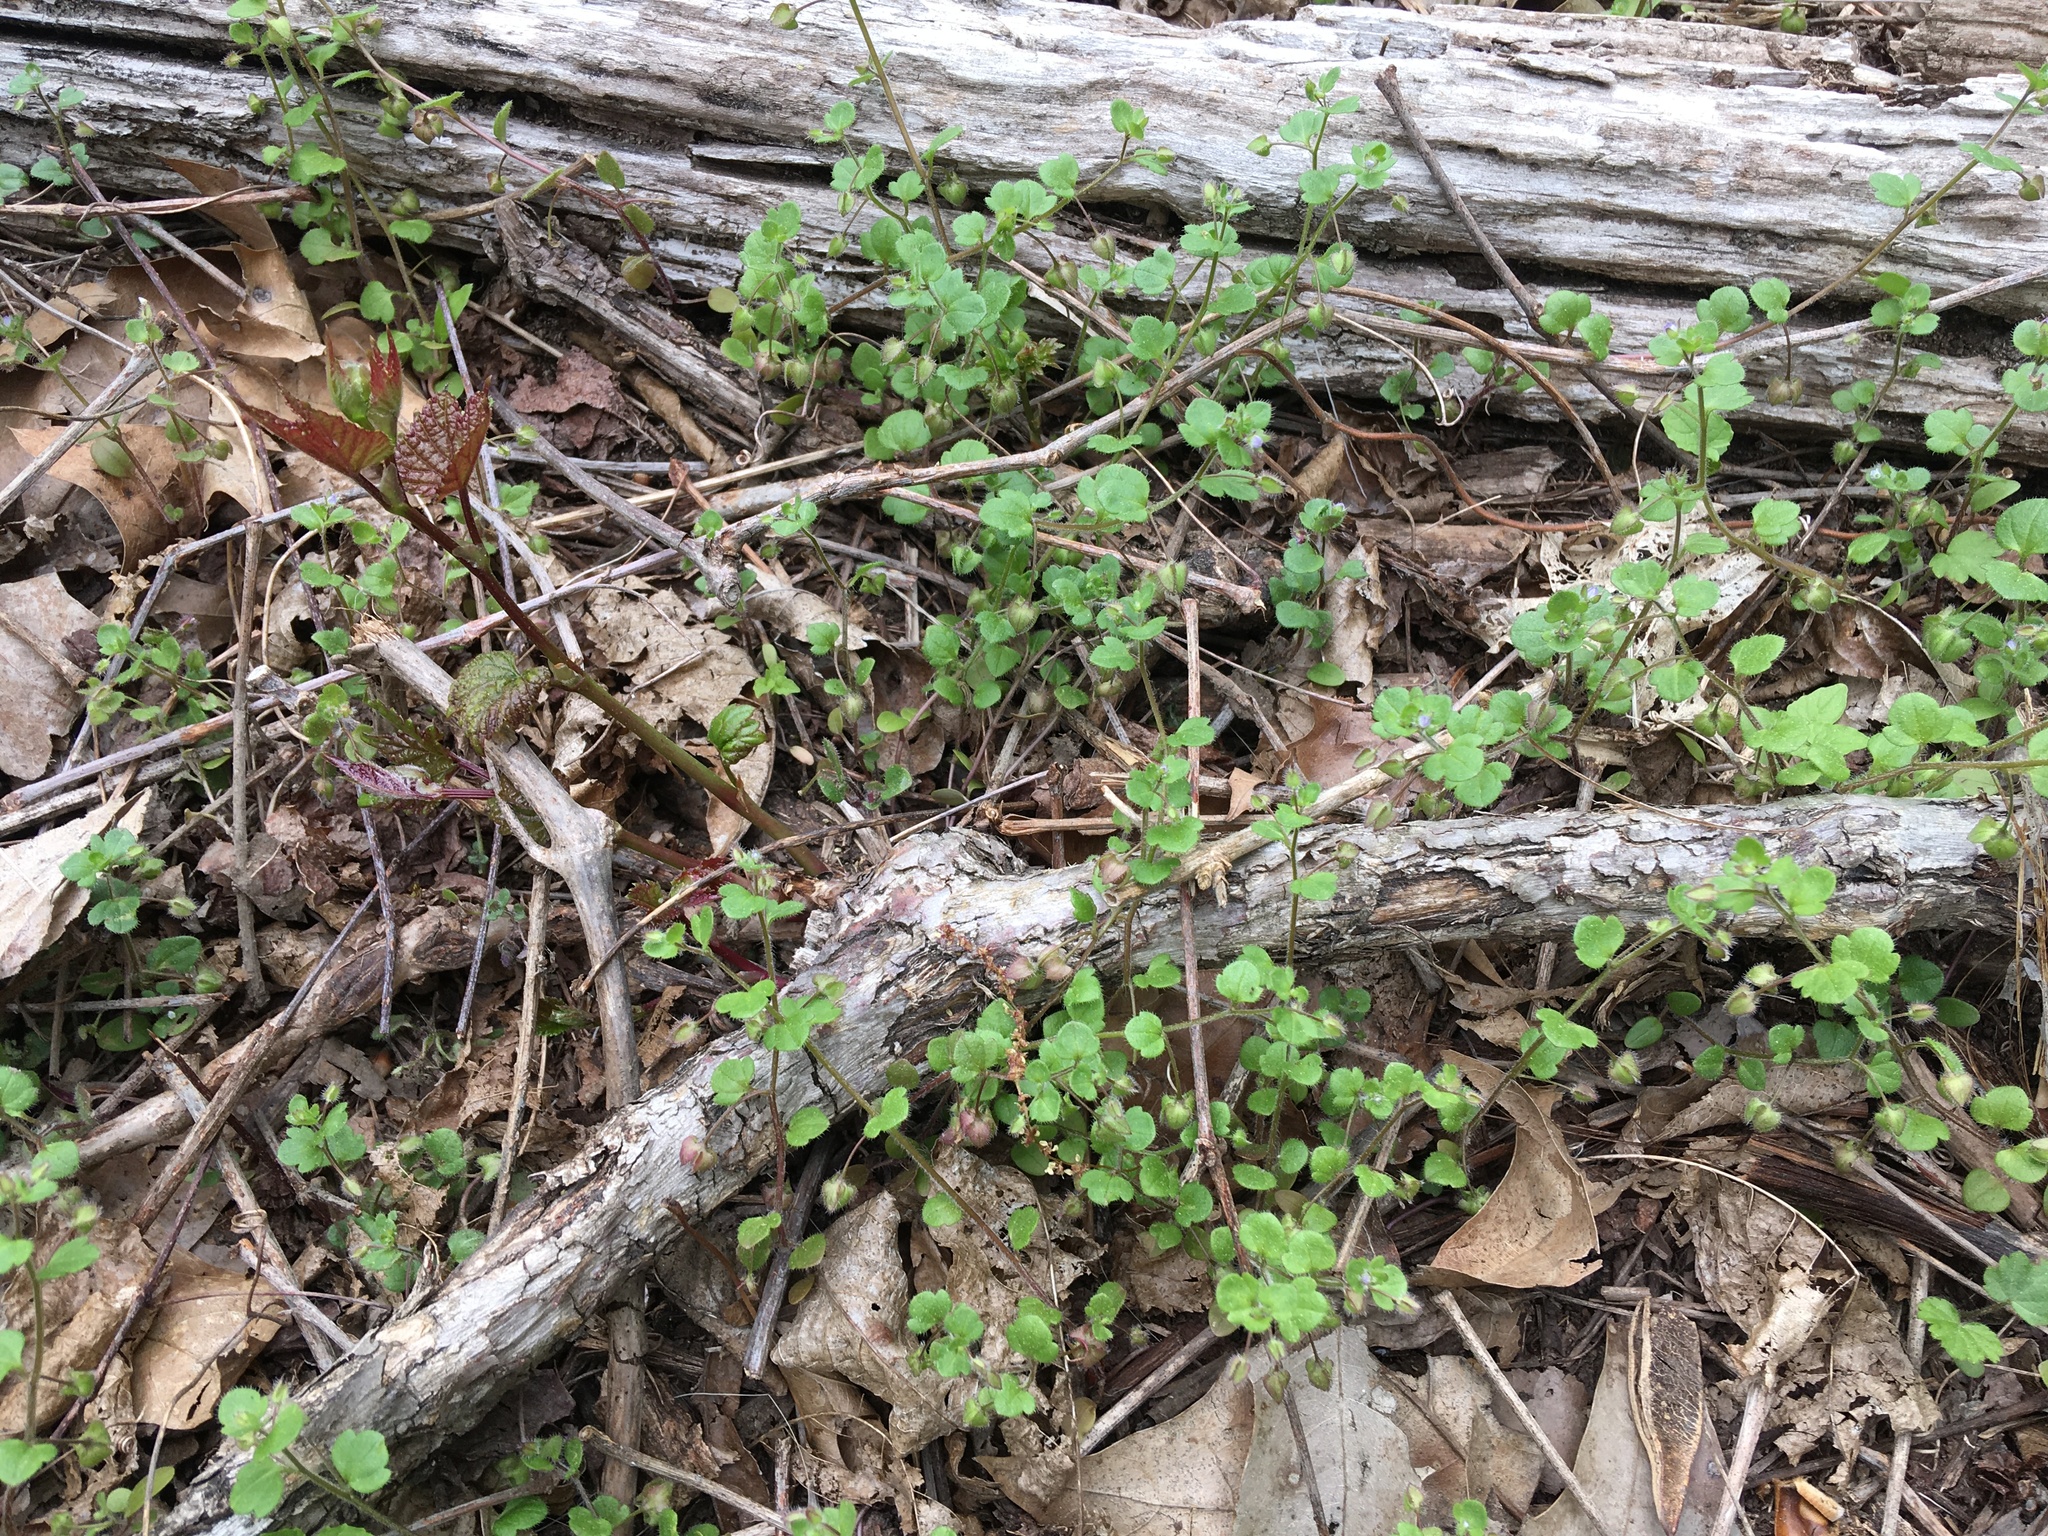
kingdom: Plantae
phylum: Tracheophyta
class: Magnoliopsida
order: Lamiales
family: Plantaginaceae
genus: Veronica
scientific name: Veronica hederifolia
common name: Ivy-leaved speedwell
